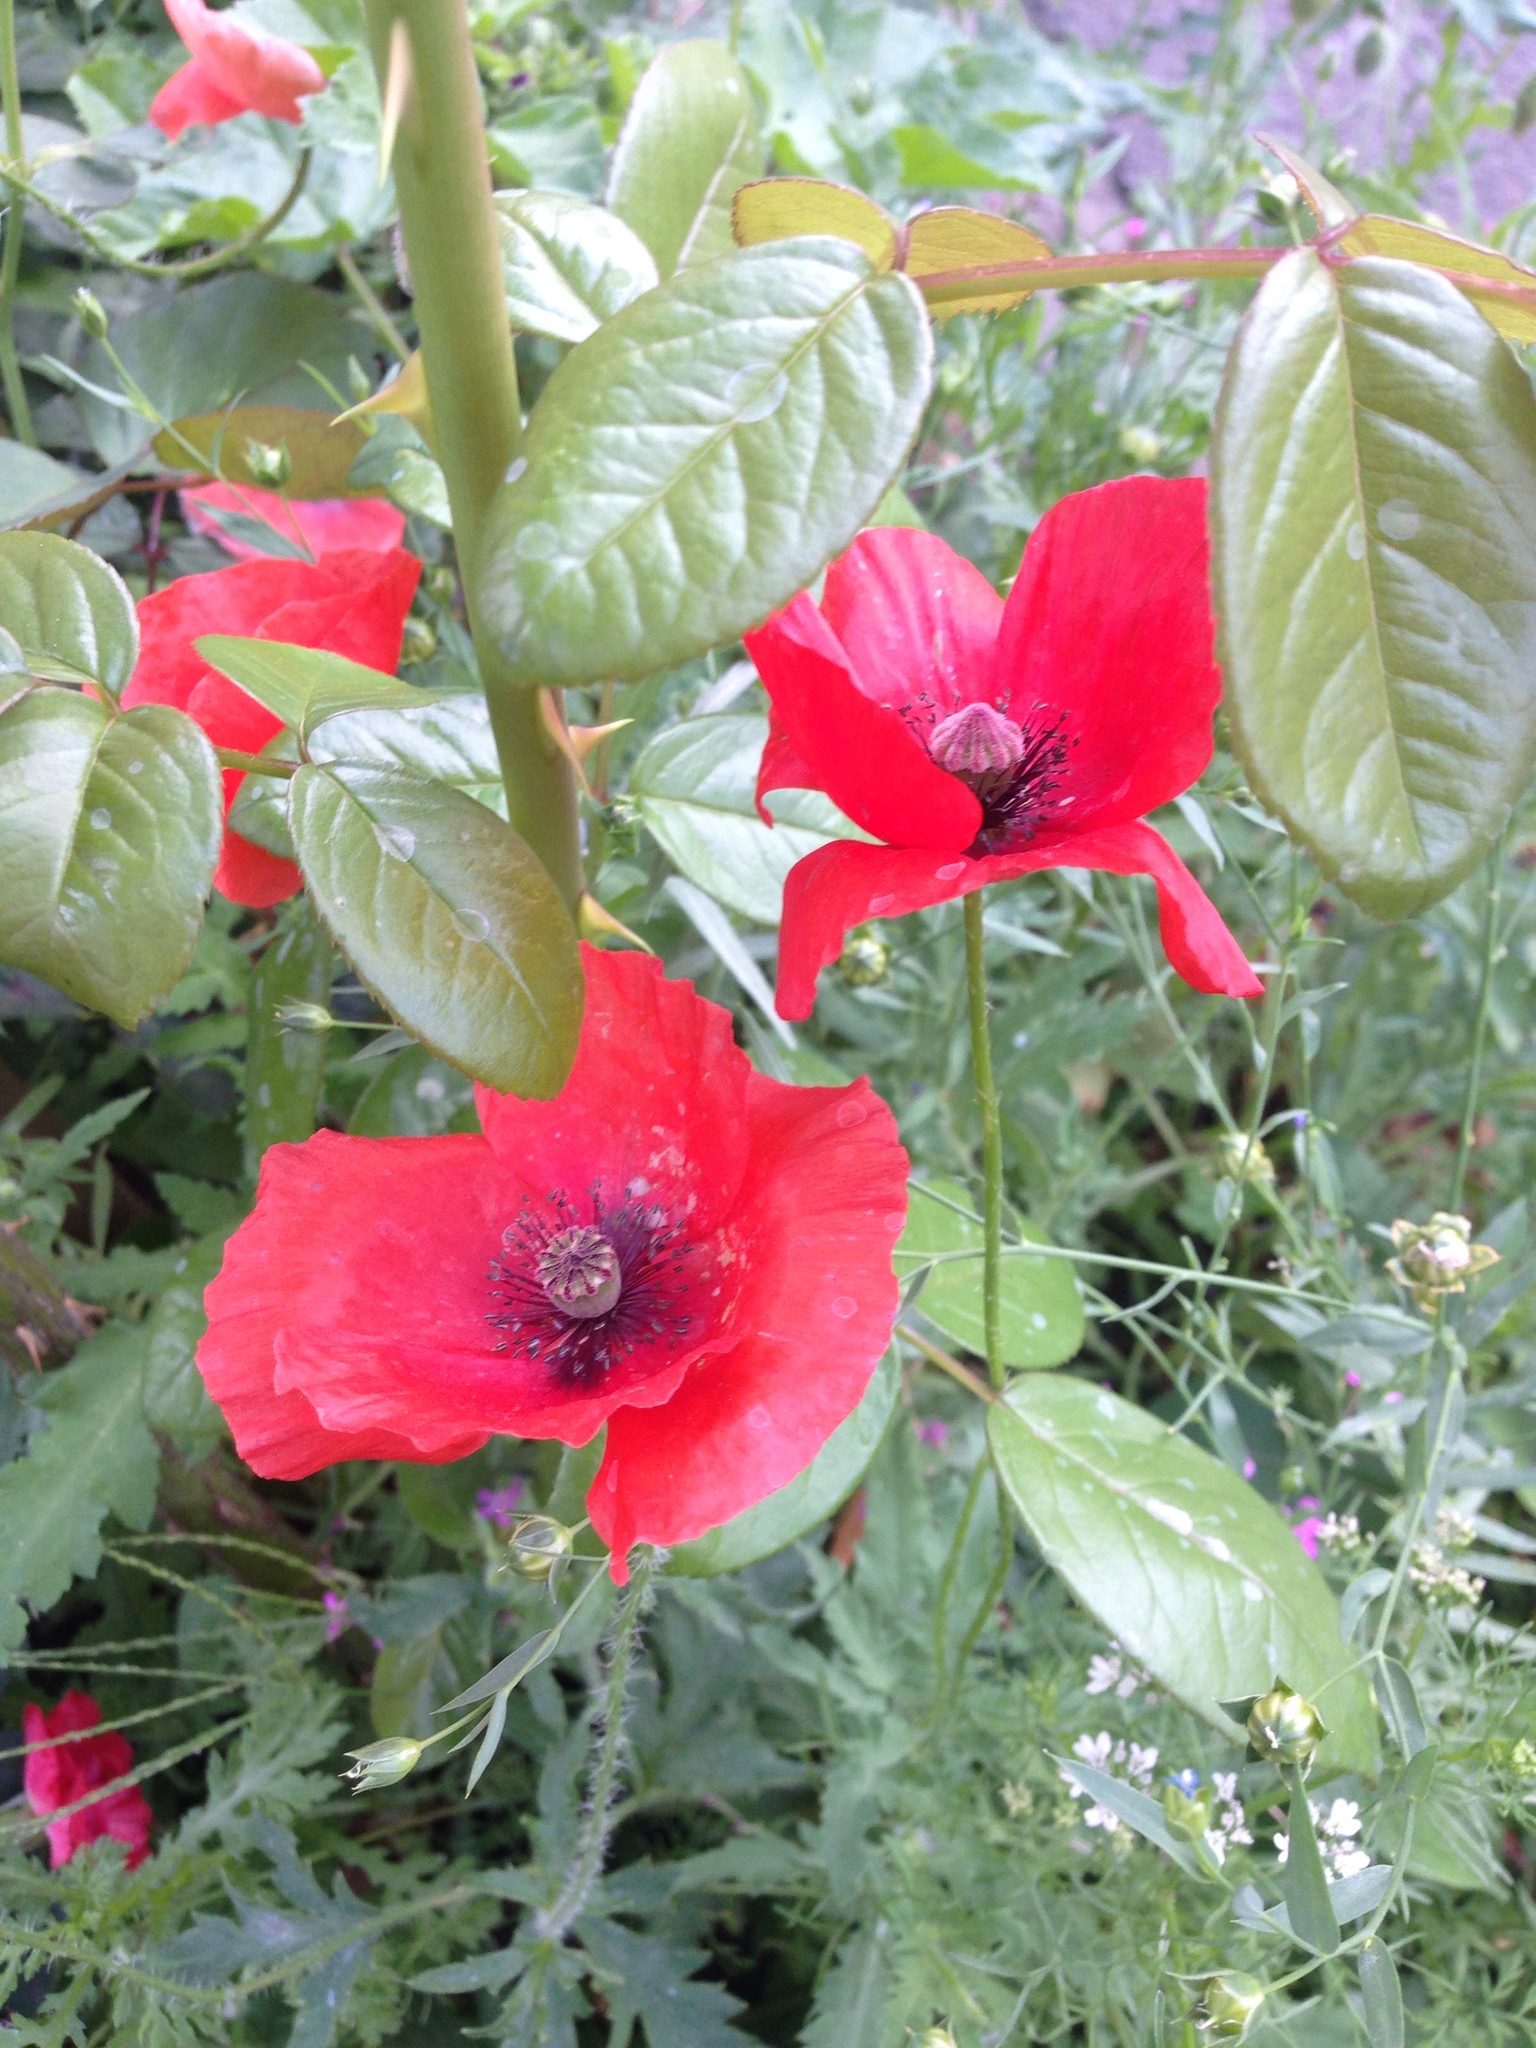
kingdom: Plantae
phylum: Tracheophyta
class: Magnoliopsida
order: Ranunculales
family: Papaveraceae
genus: Papaver
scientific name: Papaver rhoeas
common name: Corn poppy
